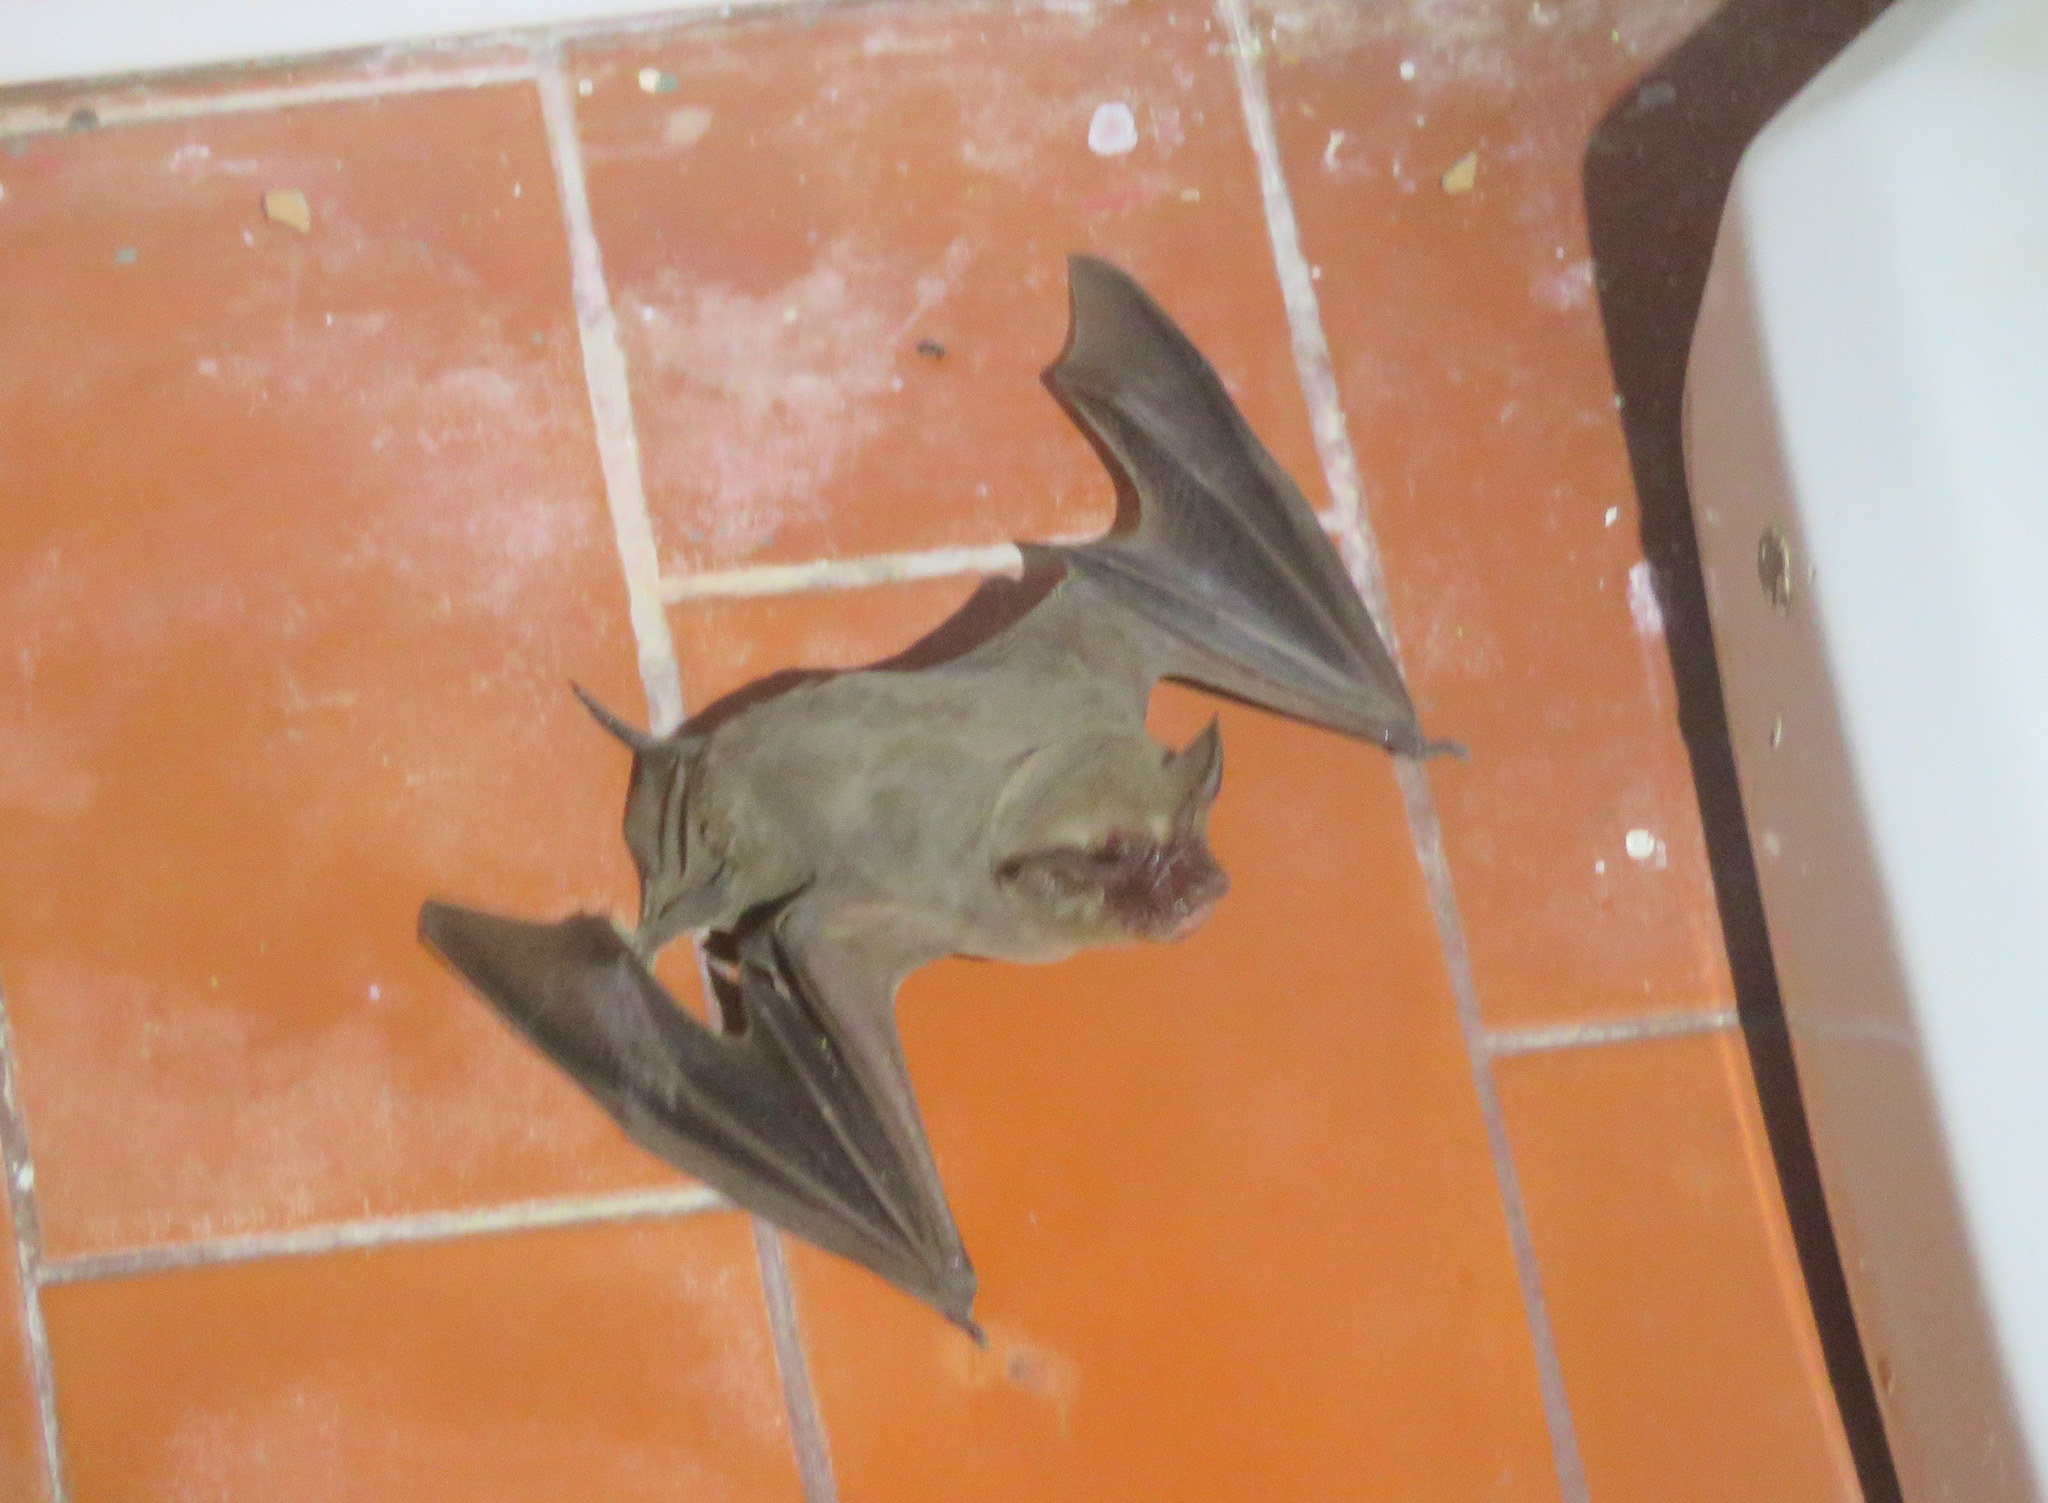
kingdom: Animalia
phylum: Chordata
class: Mammalia
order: Chiroptera
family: Molossidae
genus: Eumops
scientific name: Eumops patagonicus
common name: Patagonian dwarf bonneted bat
